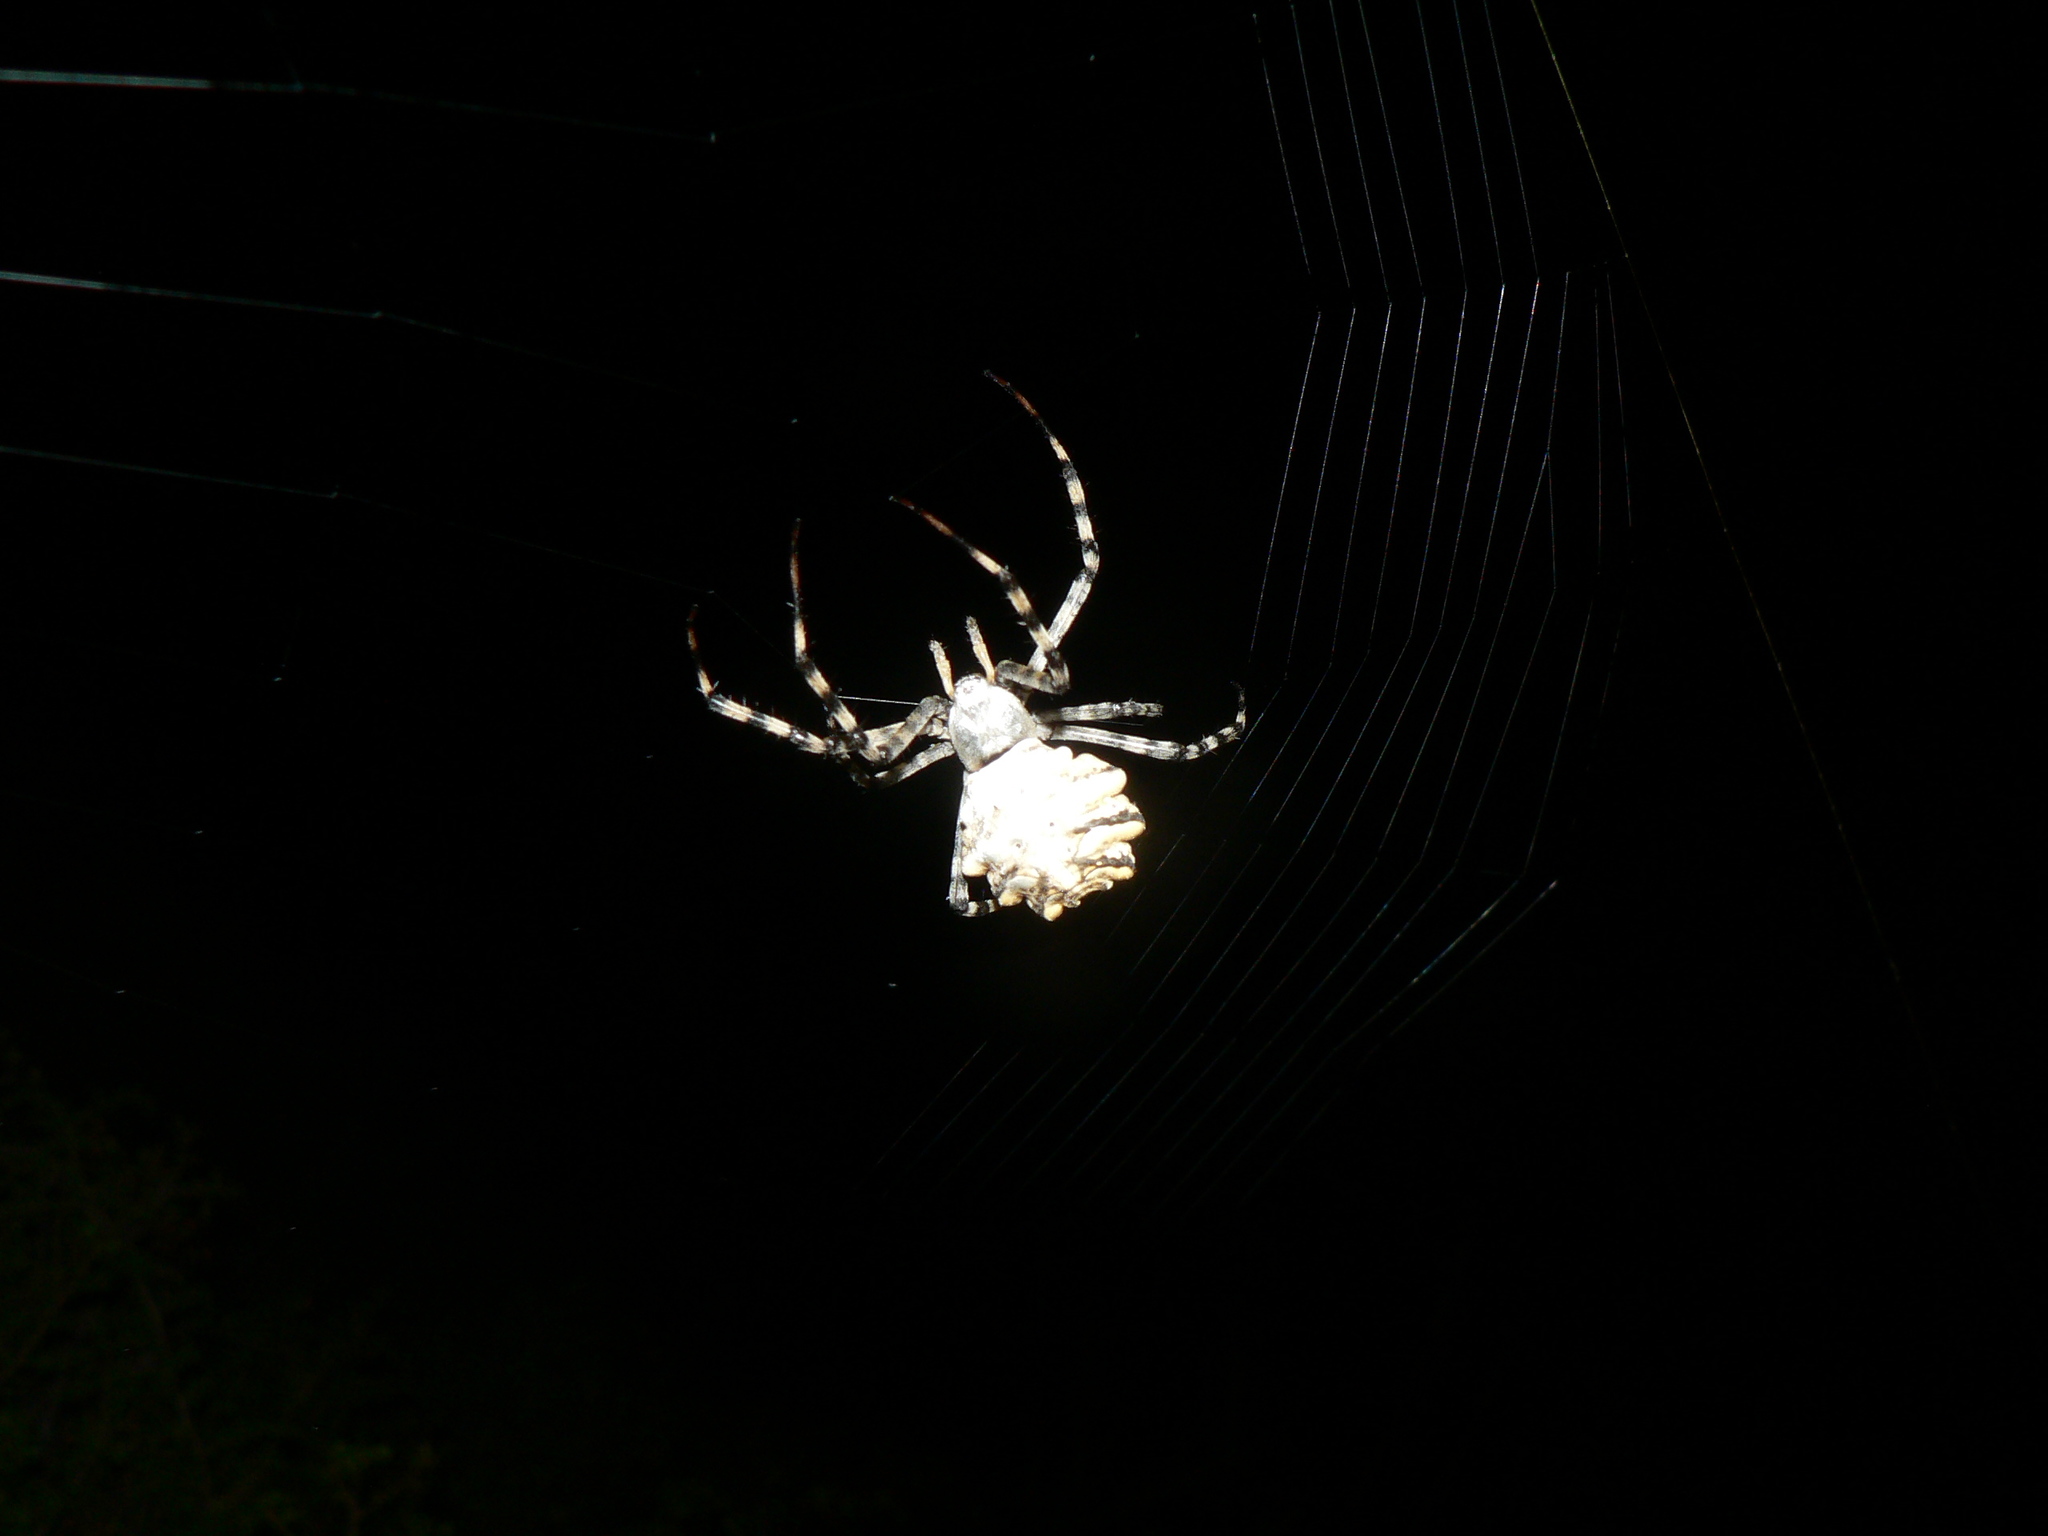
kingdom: Animalia
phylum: Arthropoda
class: Arachnida
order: Araneae
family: Araneidae
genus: Argiope
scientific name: Argiope lobata
